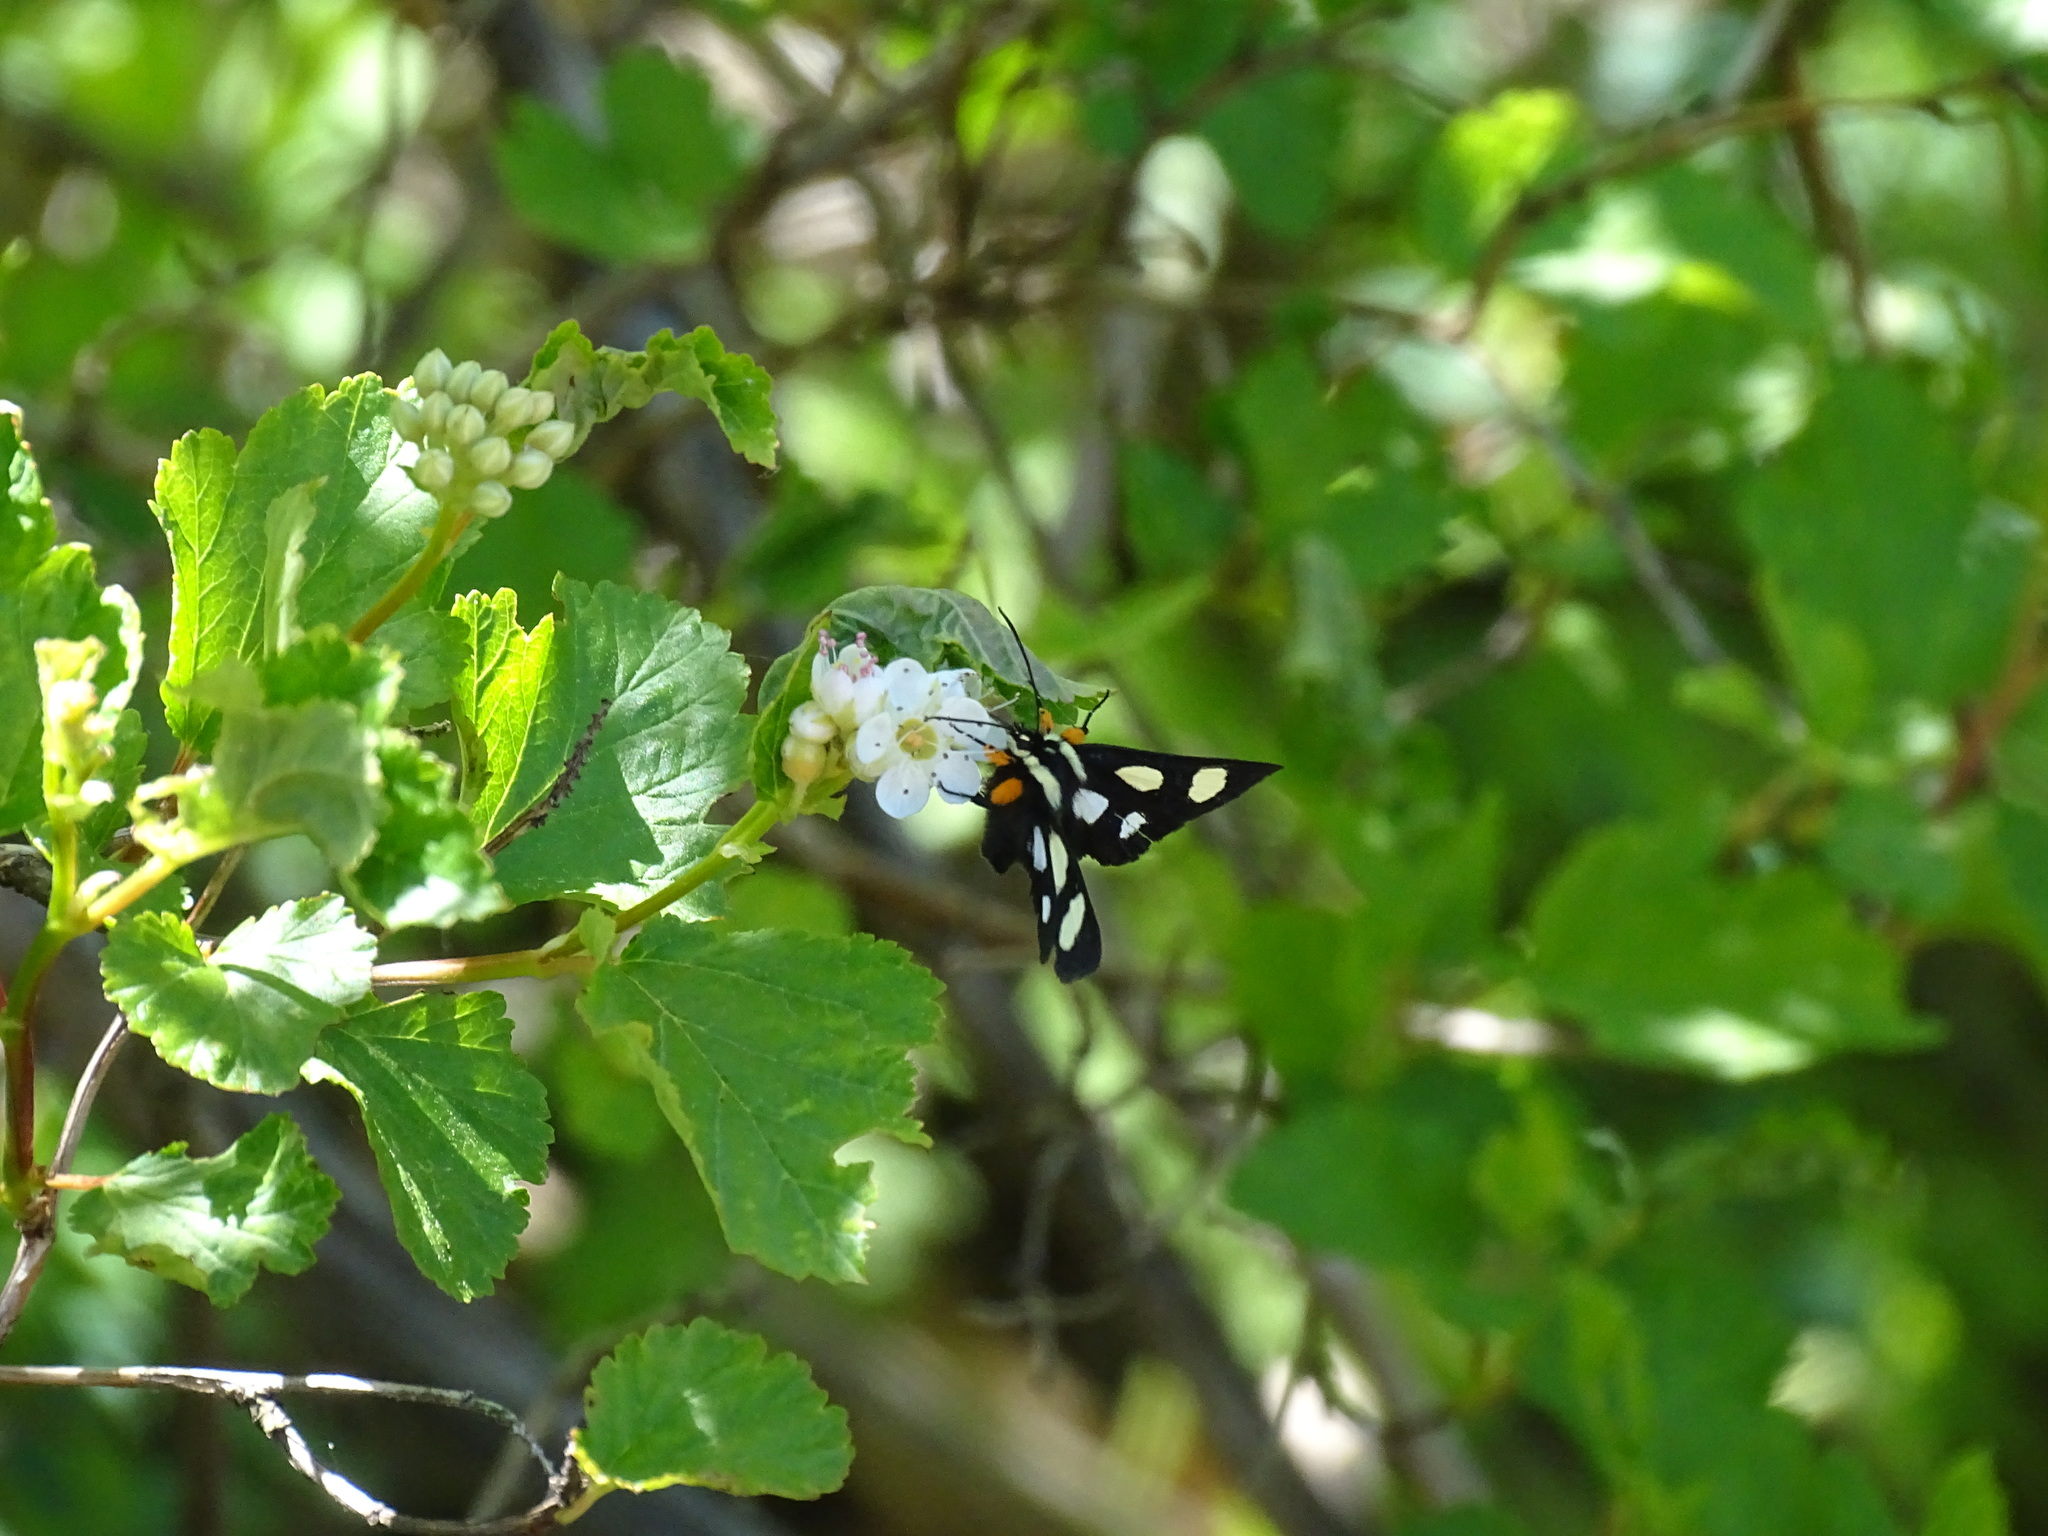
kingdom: Animalia
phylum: Arthropoda
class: Insecta
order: Lepidoptera
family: Noctuidae
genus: Alypia
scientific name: Alypia octomaculata
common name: Eight-spotted forester
